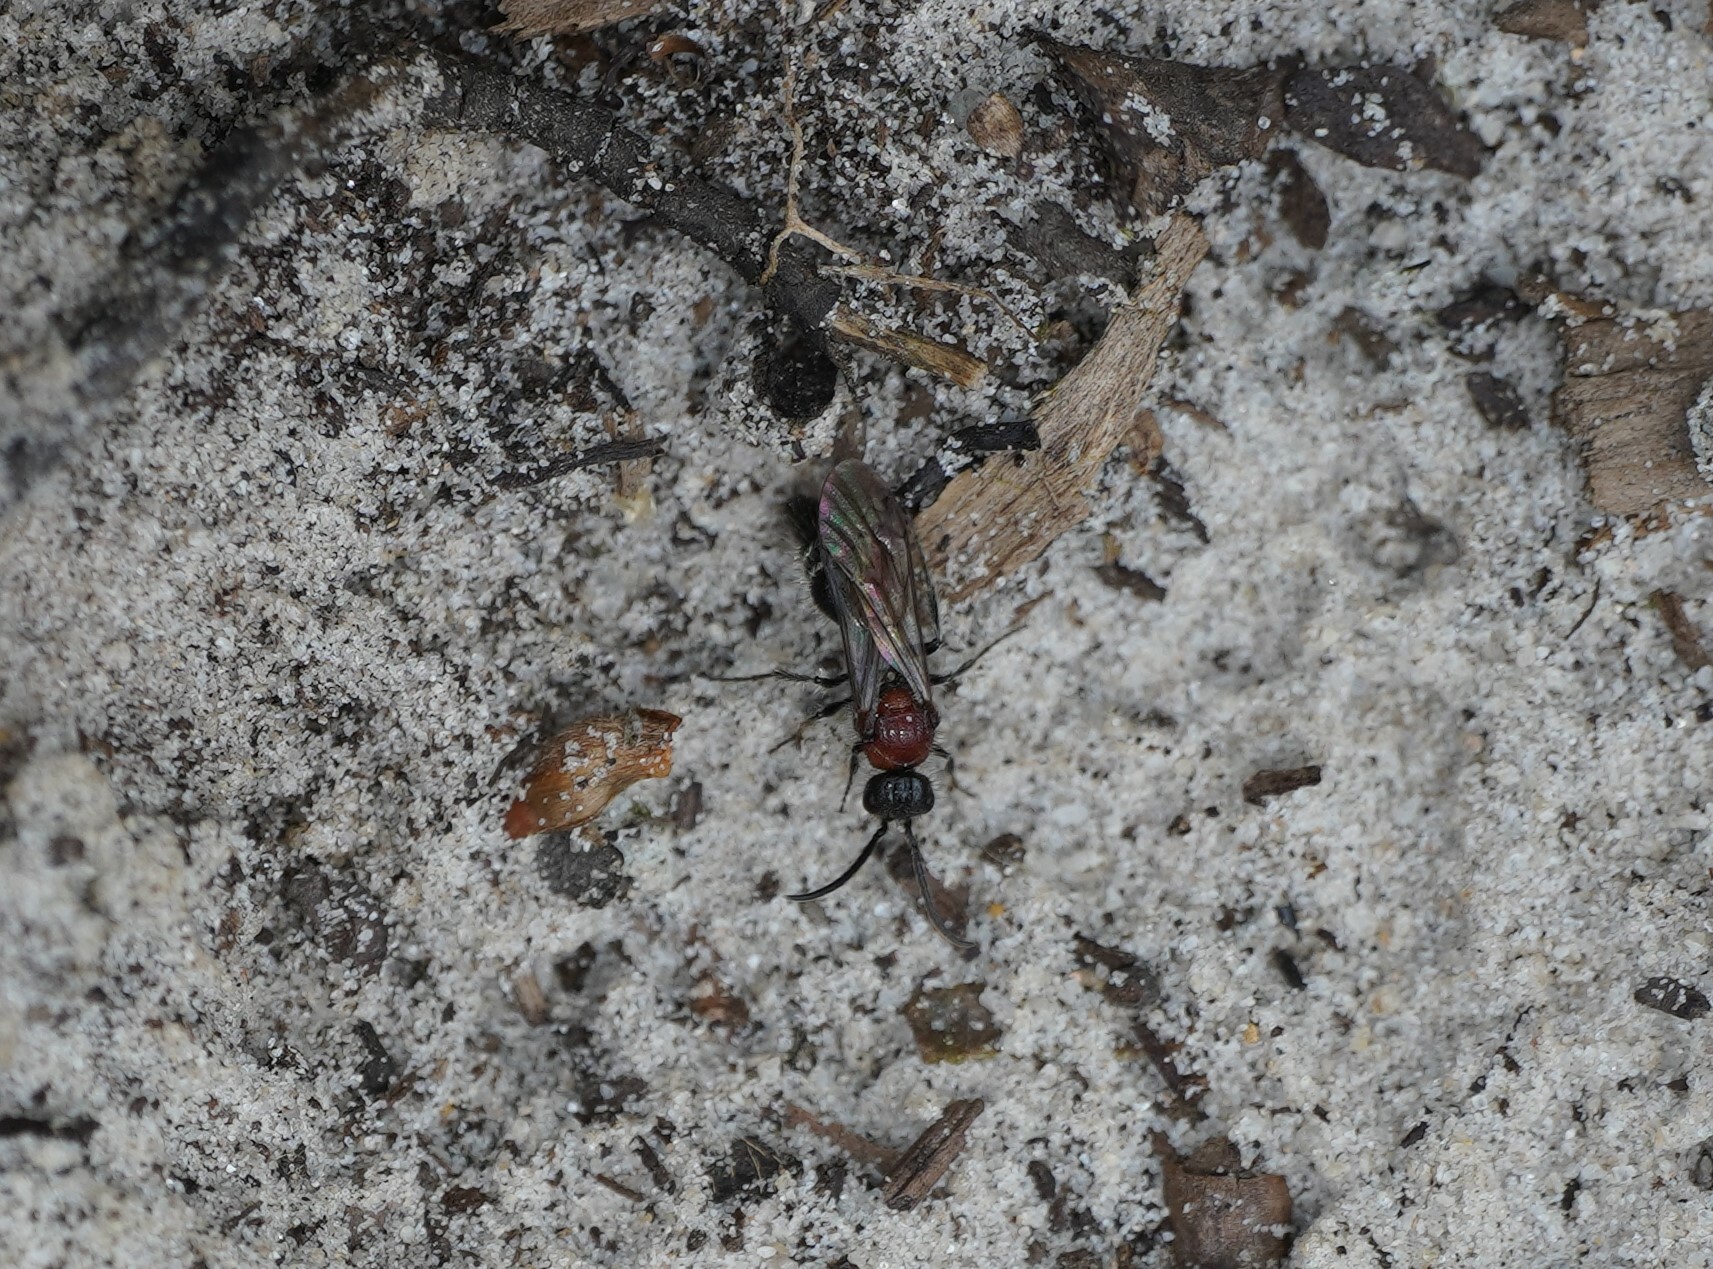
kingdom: Animalia
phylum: Arthropoda
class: Insecta
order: Hymenoptera
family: Mutillidae
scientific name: Mutillidae
